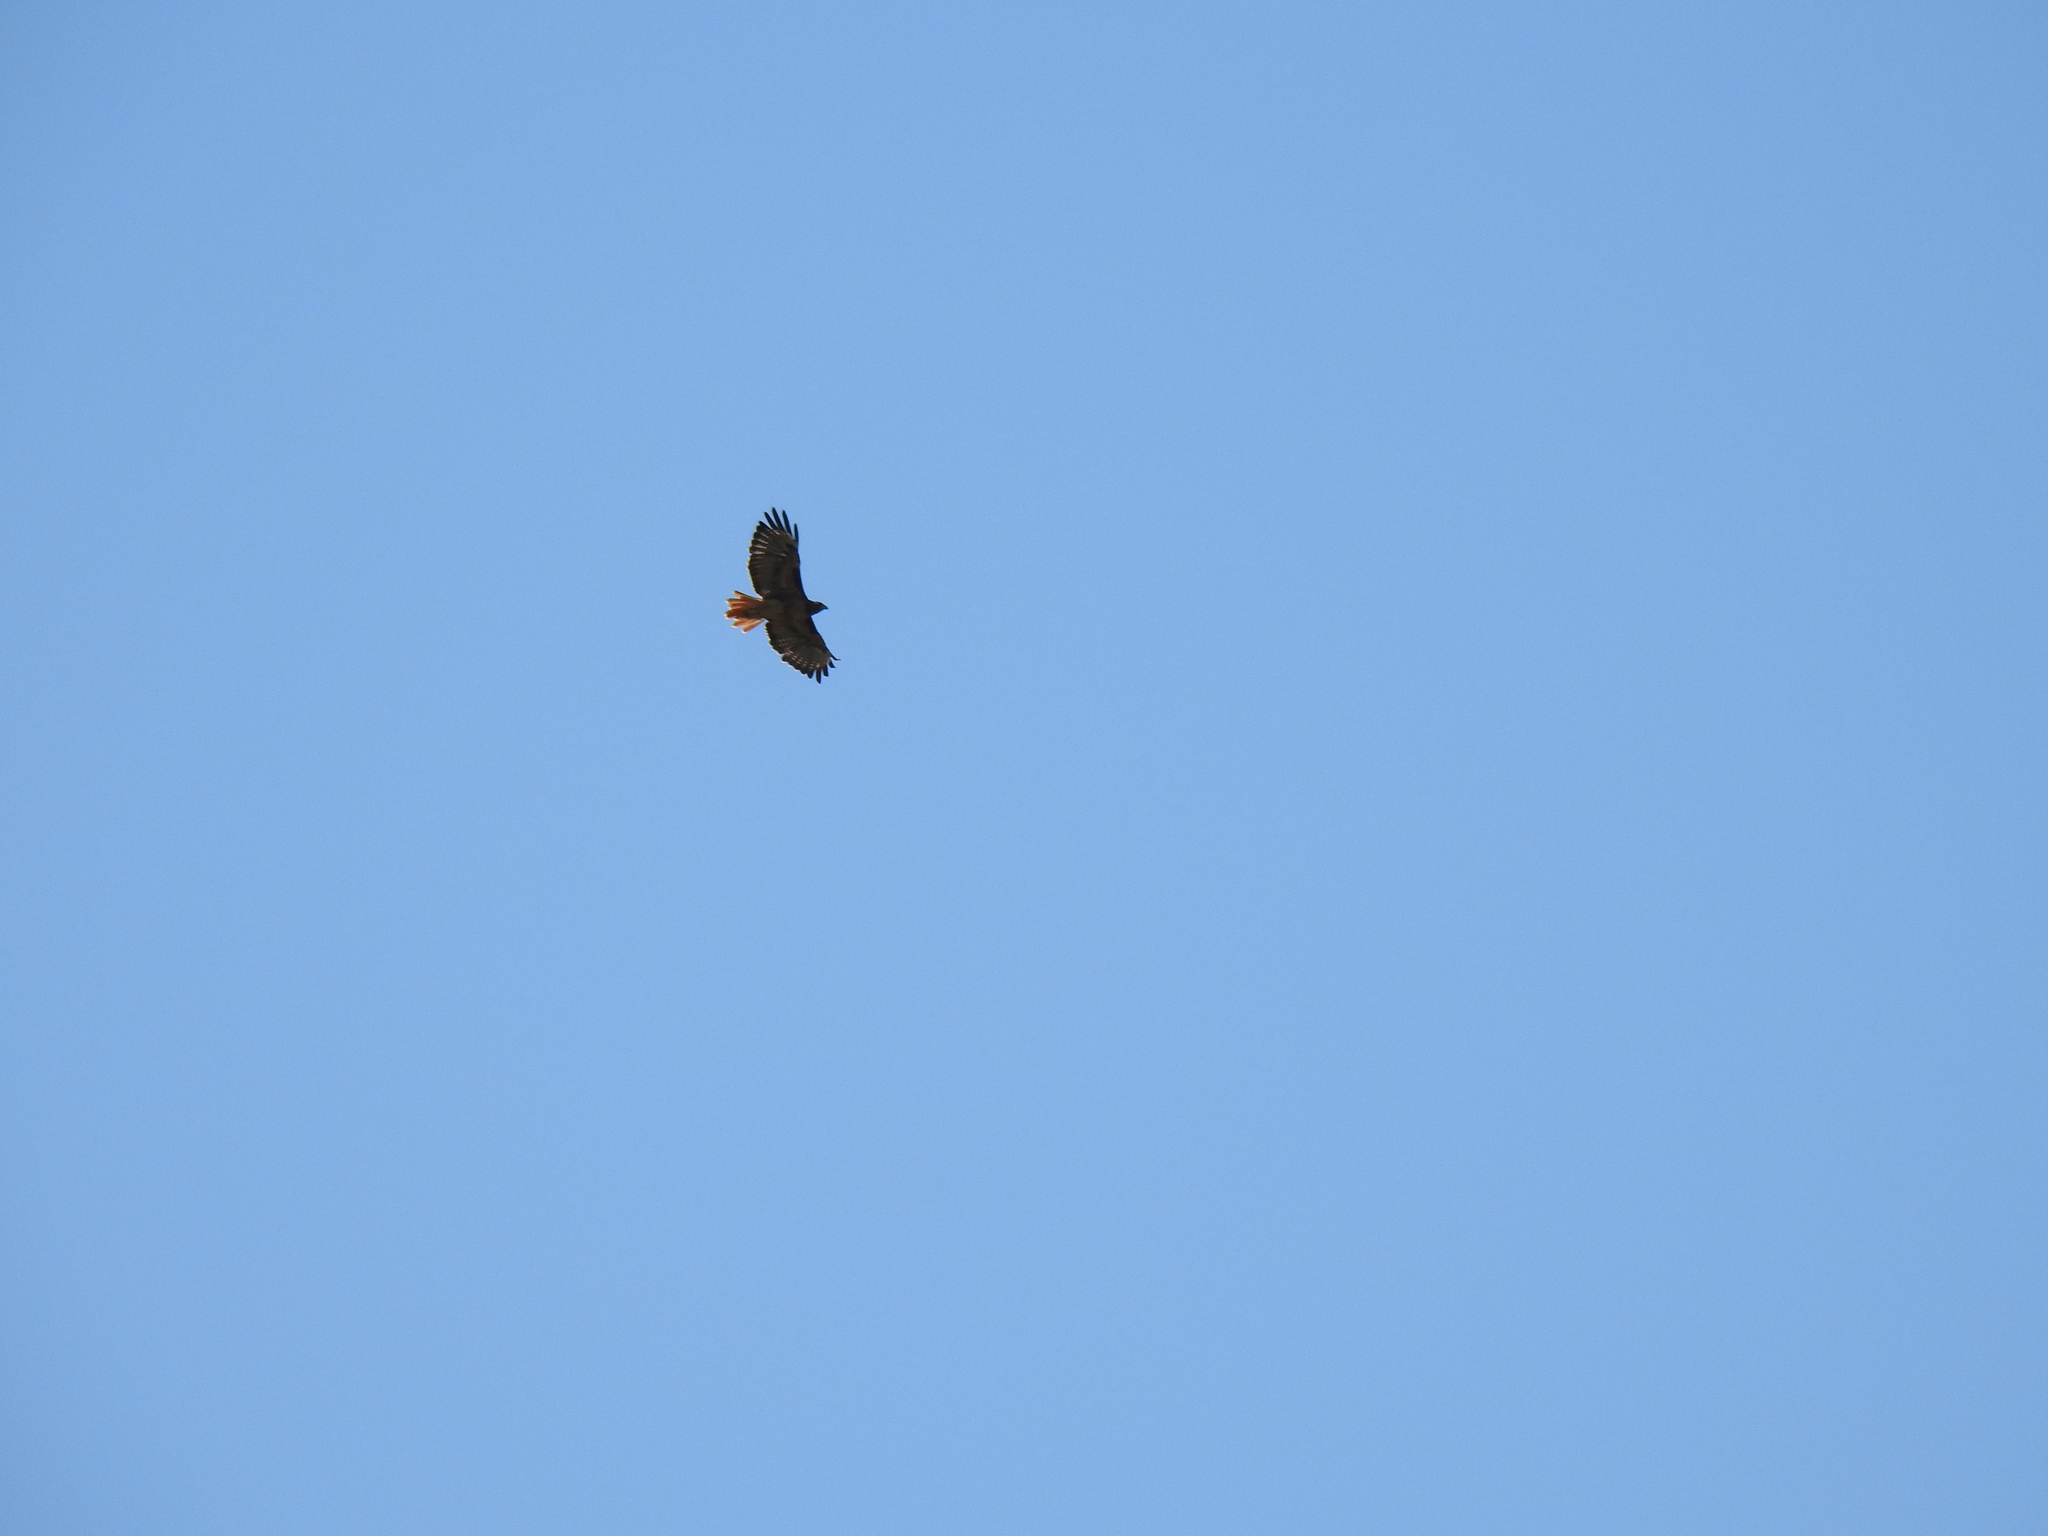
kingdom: Animalia
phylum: Chordata
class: Aves
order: Accipitriformes
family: Accipitridae
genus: Buteo
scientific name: Buteo jamaicensis
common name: Red-tailed hawk
